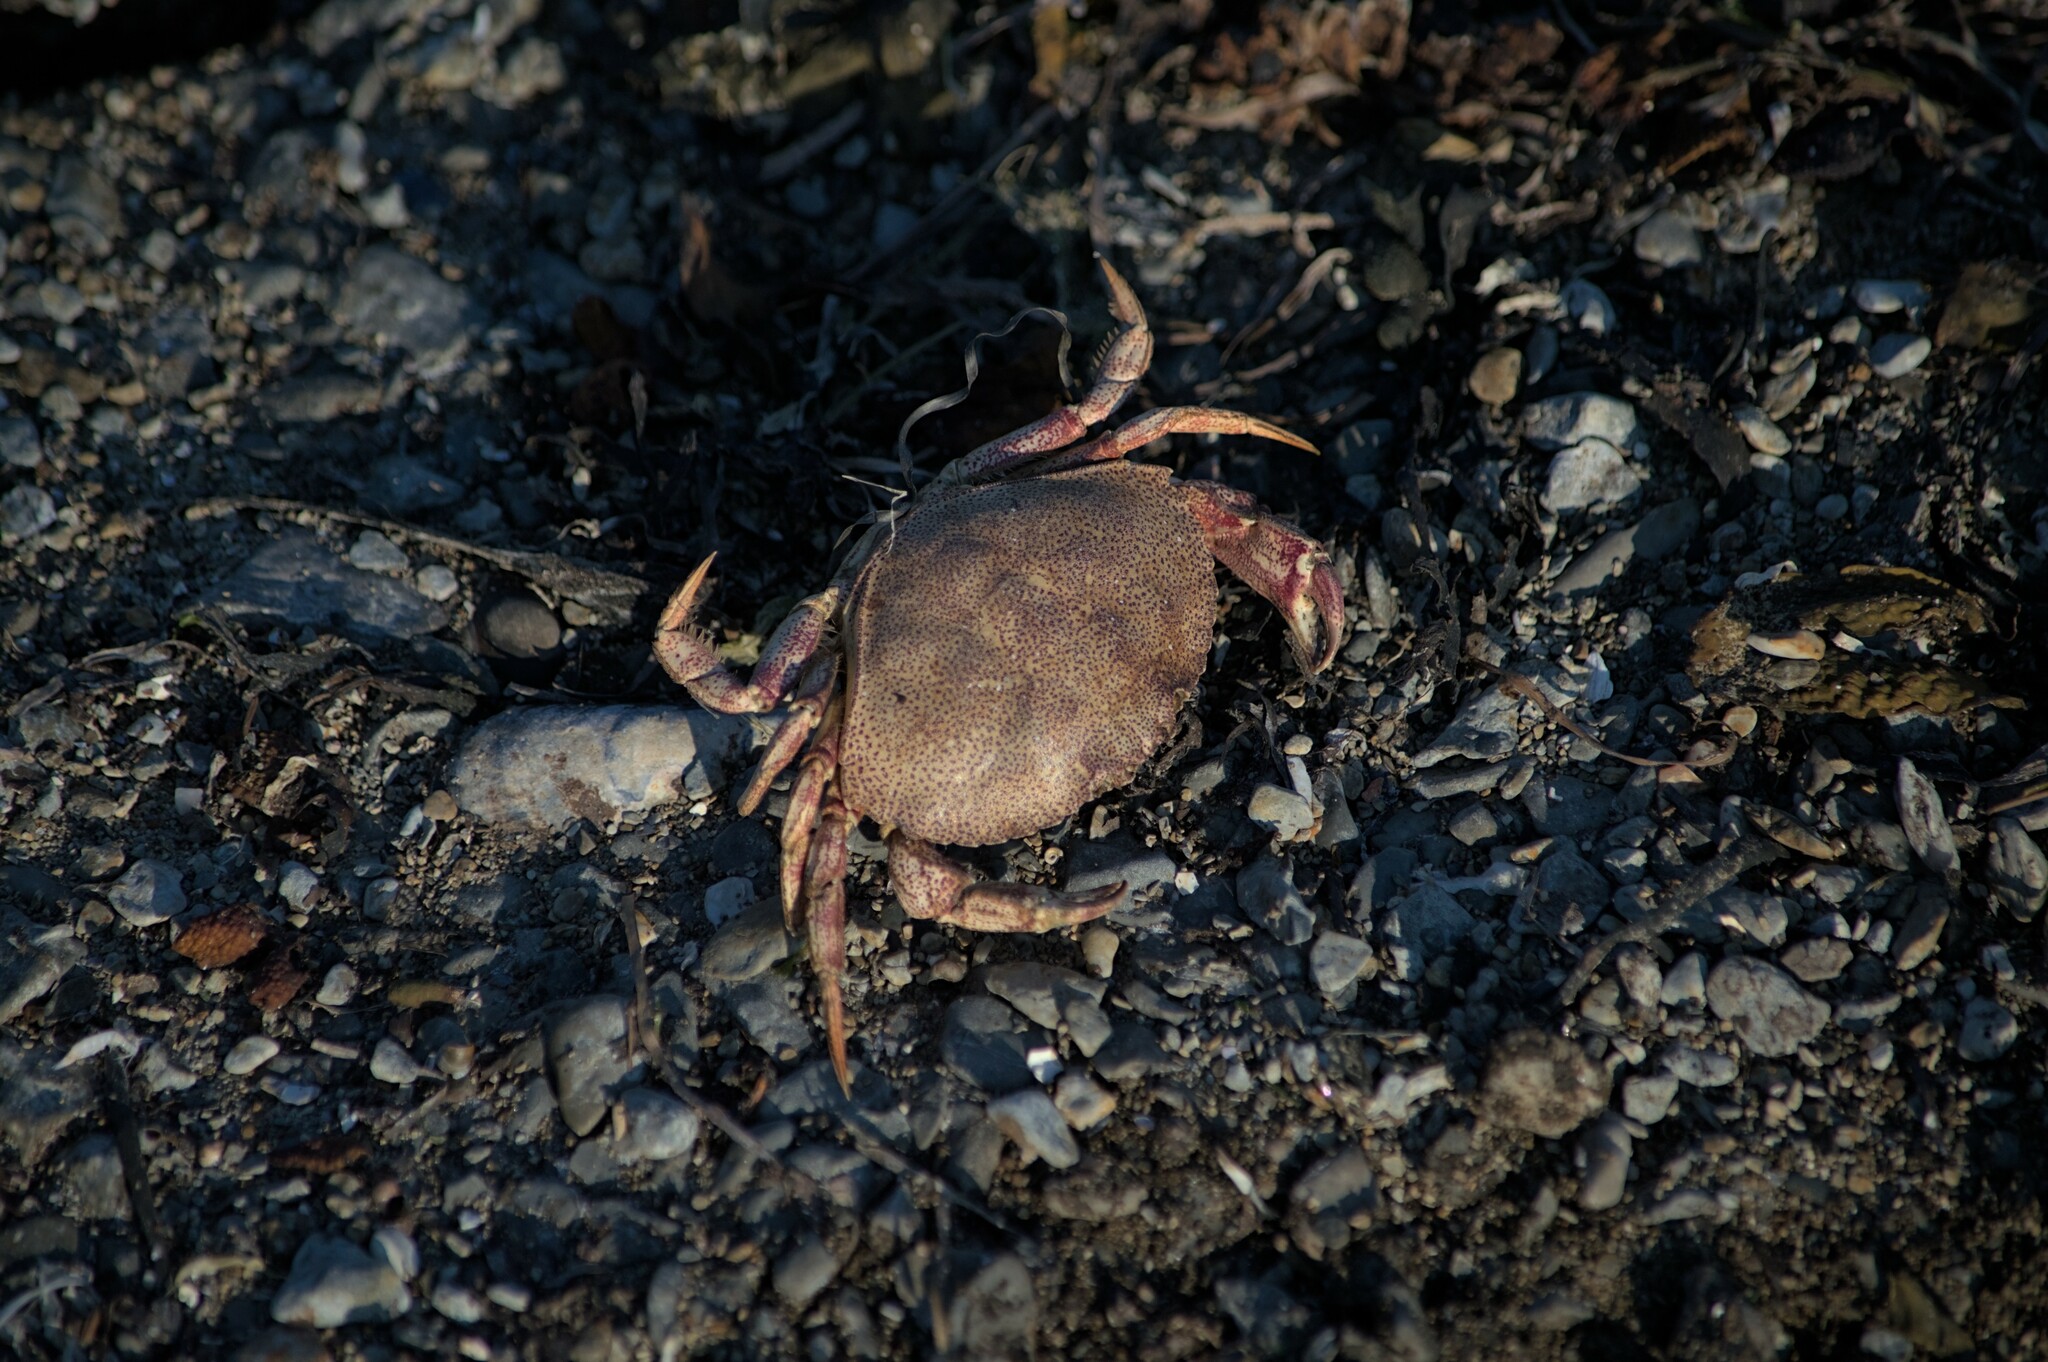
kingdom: Animalia
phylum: Arthropoda
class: Malacostraca
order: Decapoda
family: Cancridae
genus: Cancer
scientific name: Cancer irroratus
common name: Atlantic rock crab
